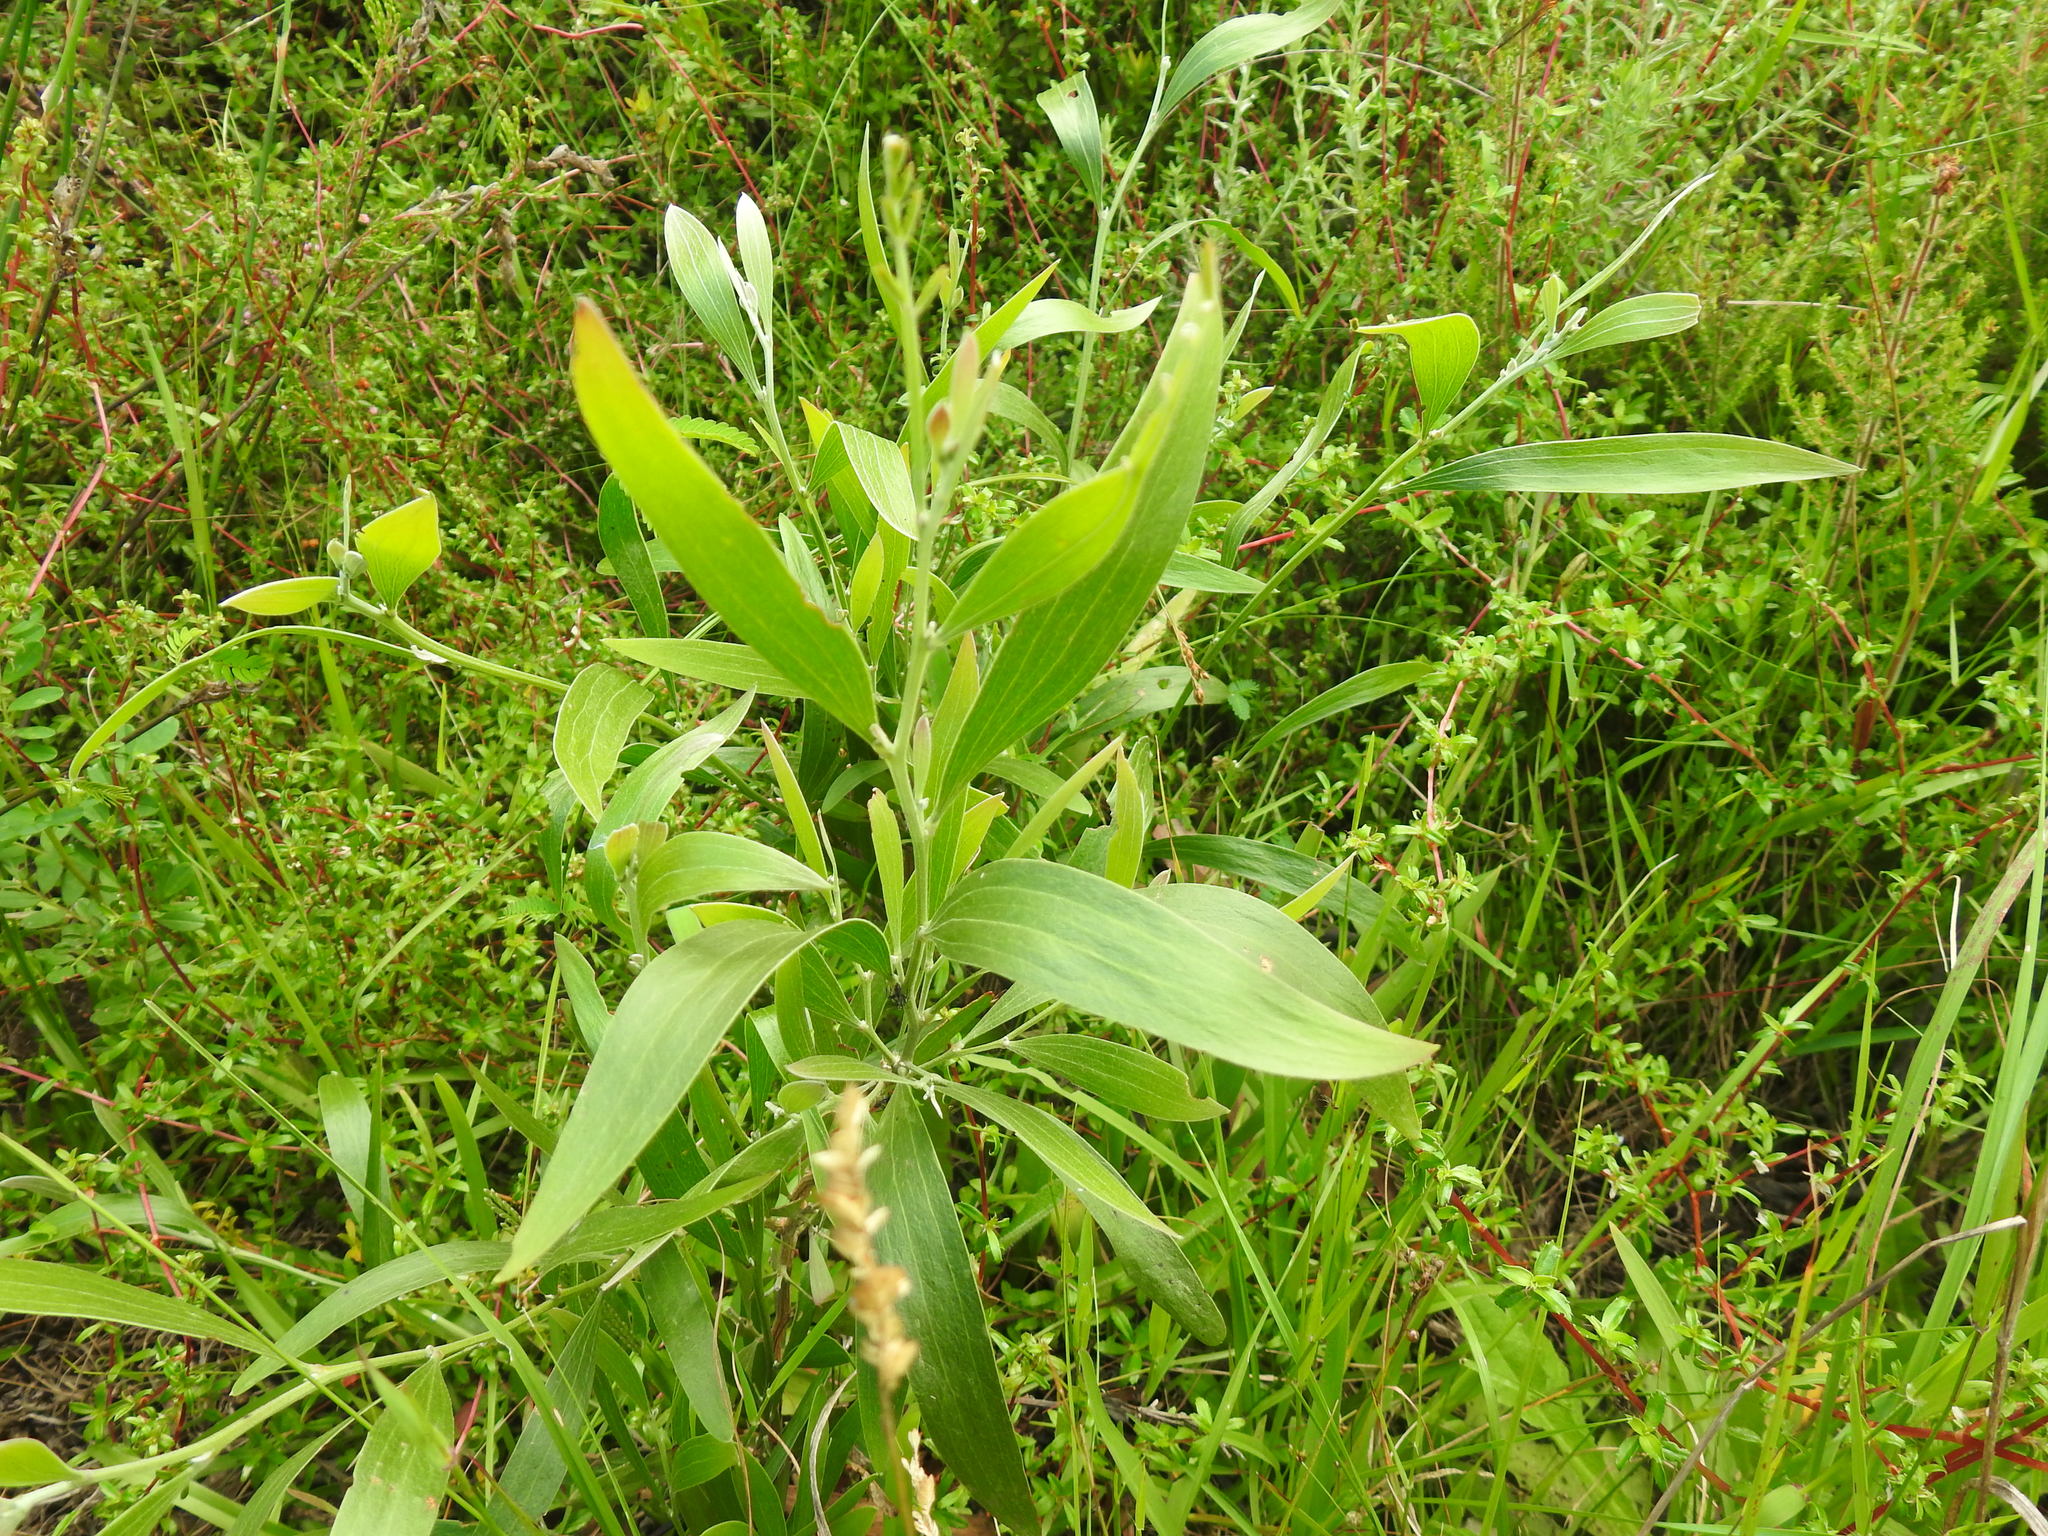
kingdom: Plantae
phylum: Tracheophyta
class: Magnoliopsida
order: Fabales
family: Fabaceae
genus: Acacia
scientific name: Acacia melanoxylon
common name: Blackwood
